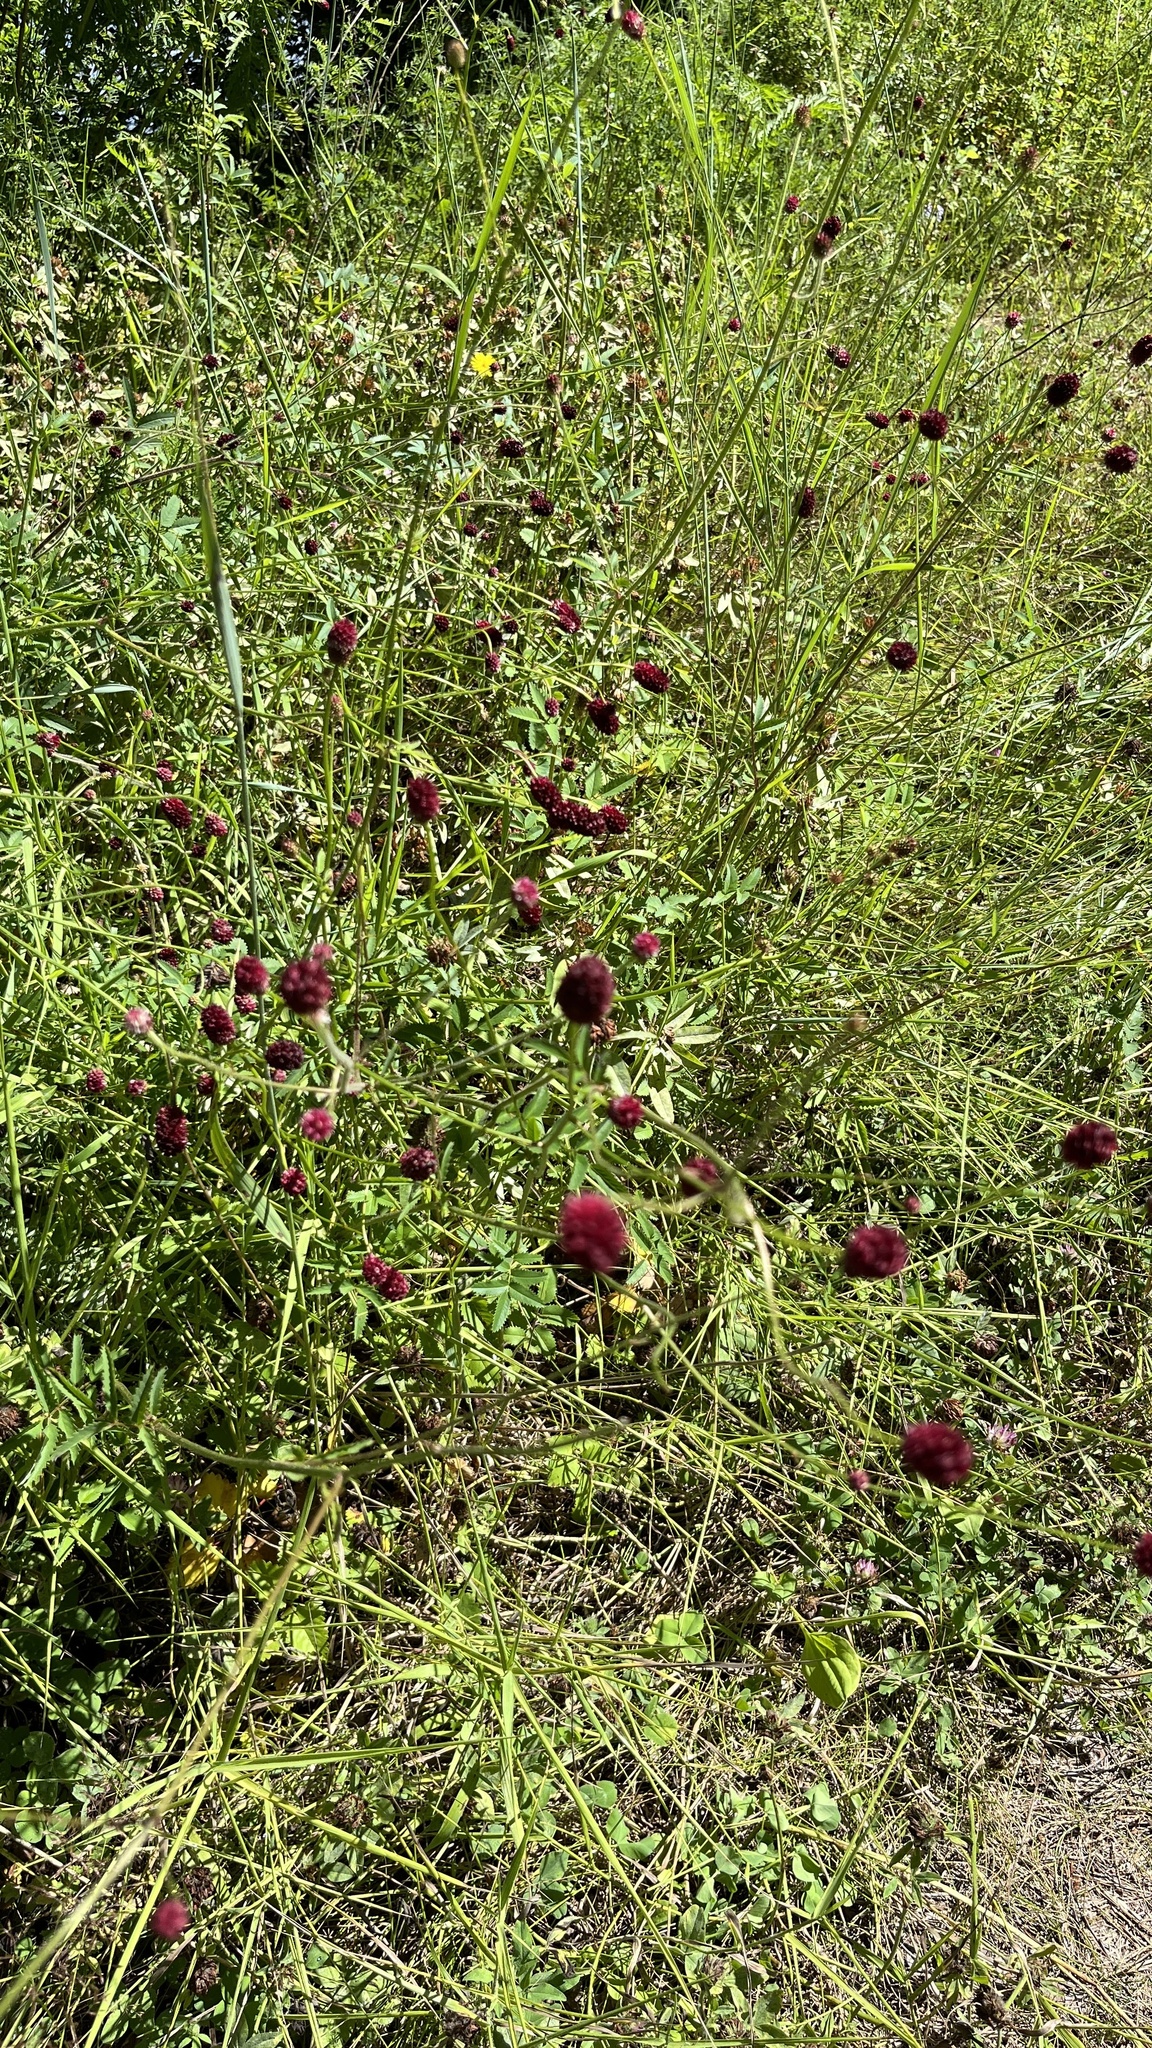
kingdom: Plantae
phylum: Tracheophyta
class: Magnoliopsida
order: Rosales
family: Rosaceae
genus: Sanguisorba
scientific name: Sanguisorba officinalis
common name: Great burnet
